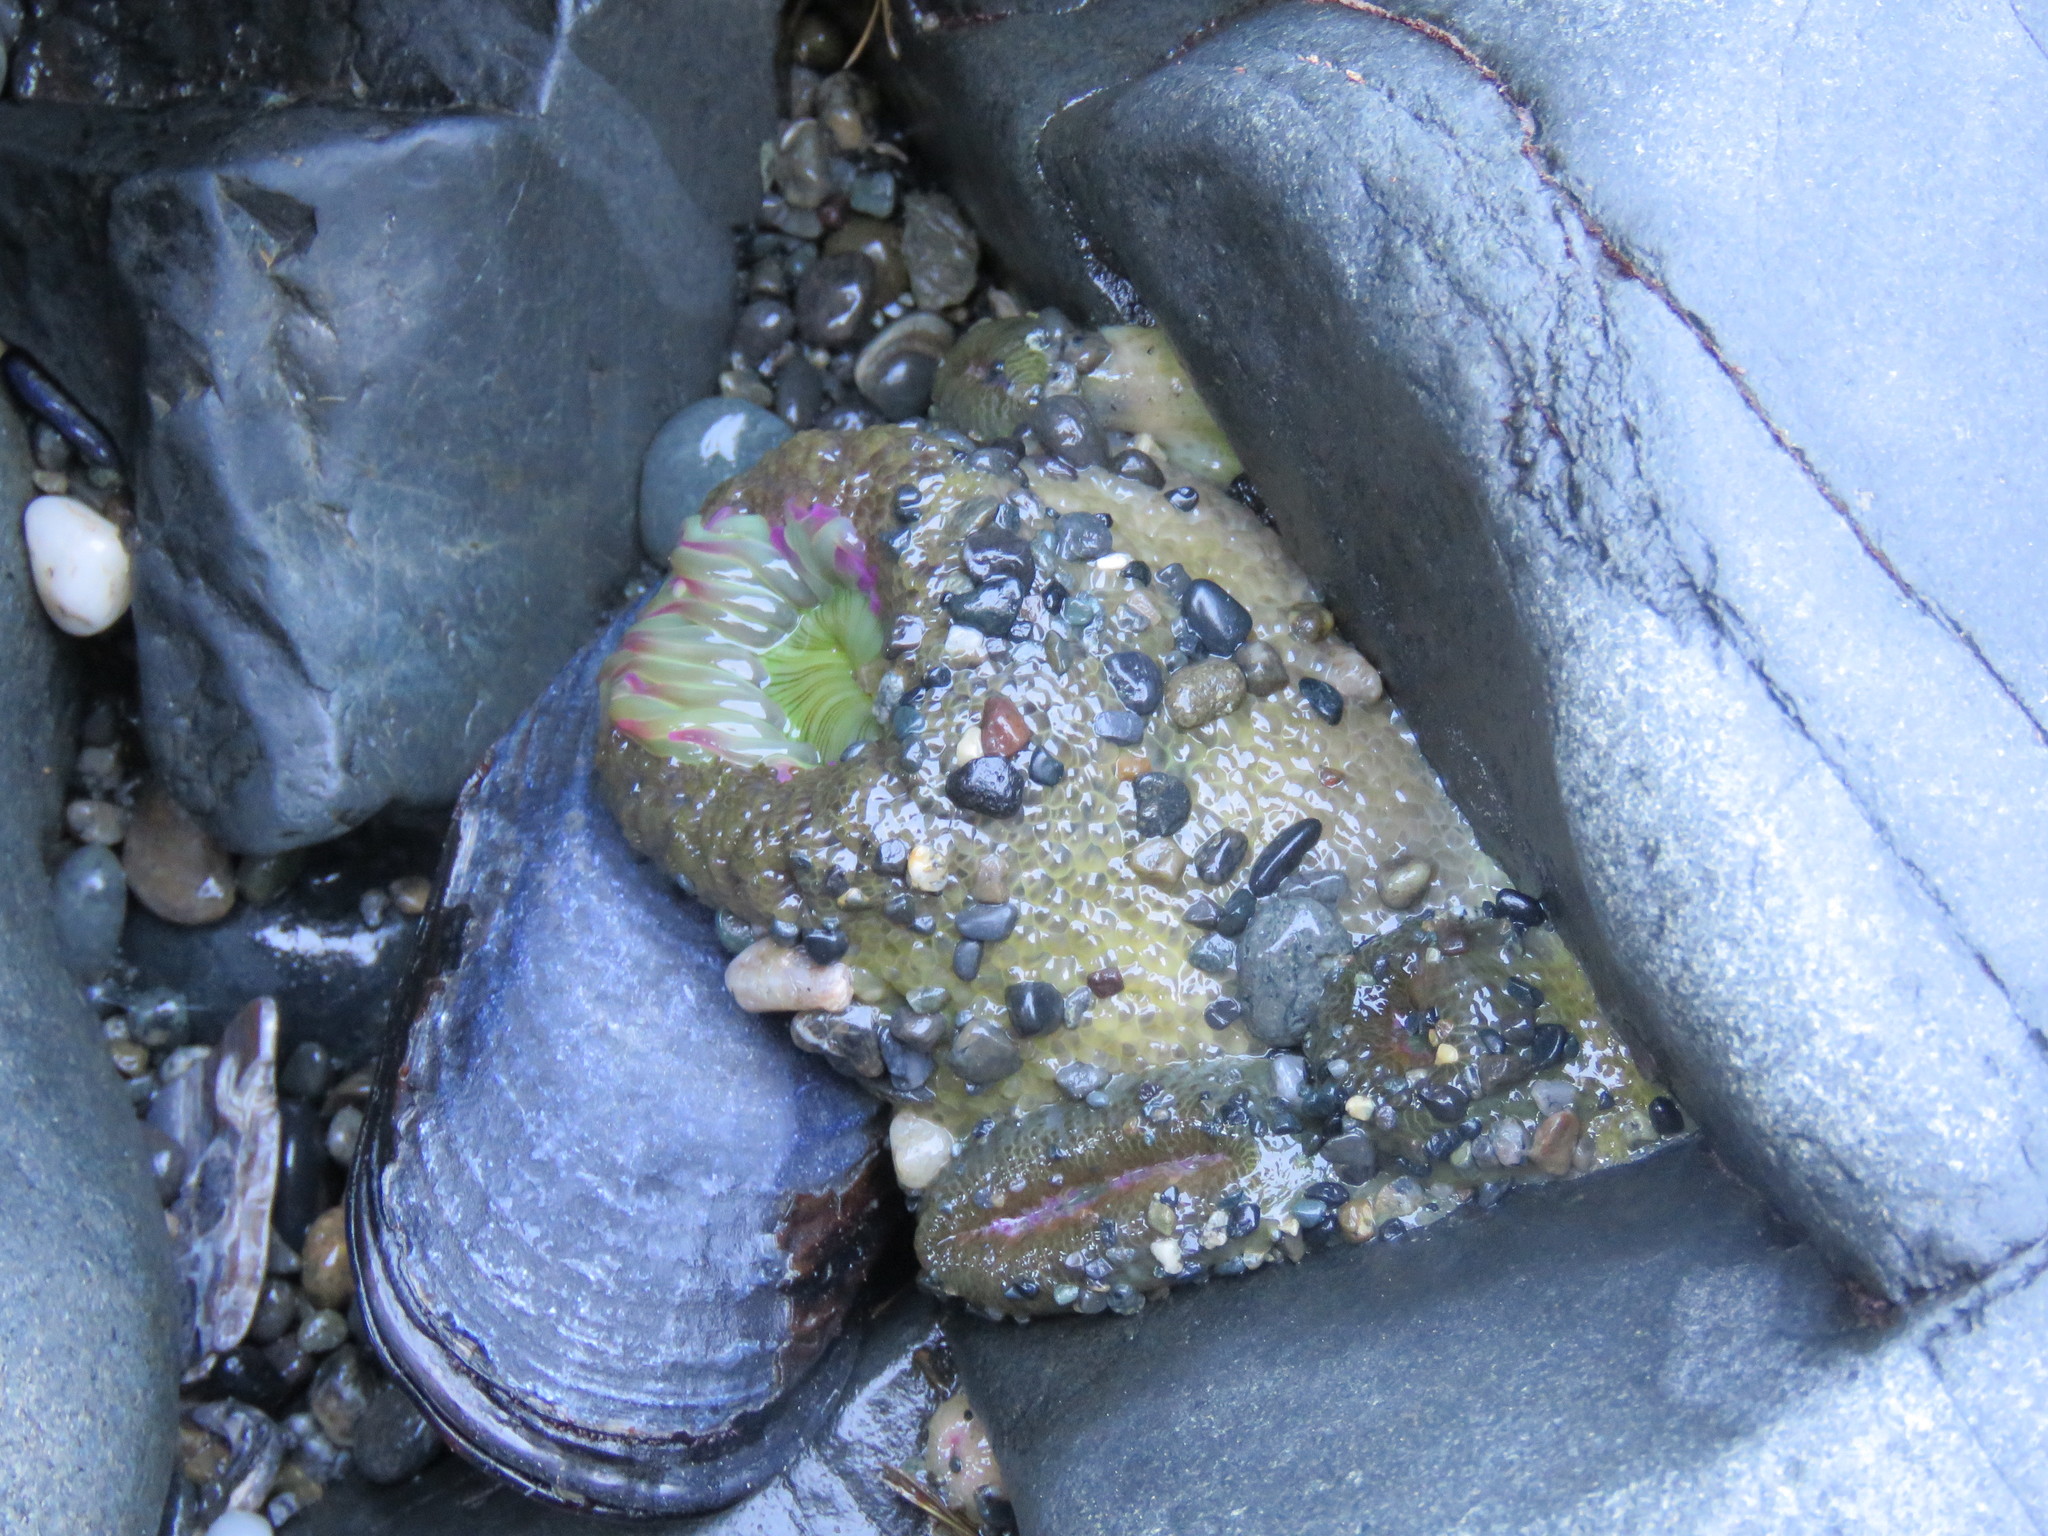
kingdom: Animalia
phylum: Cnidaria
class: Anthozoa
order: Actiniaria
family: Actiniidae
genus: Anthopleura
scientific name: Anthopleura elegantissima
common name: Clonal anemone
